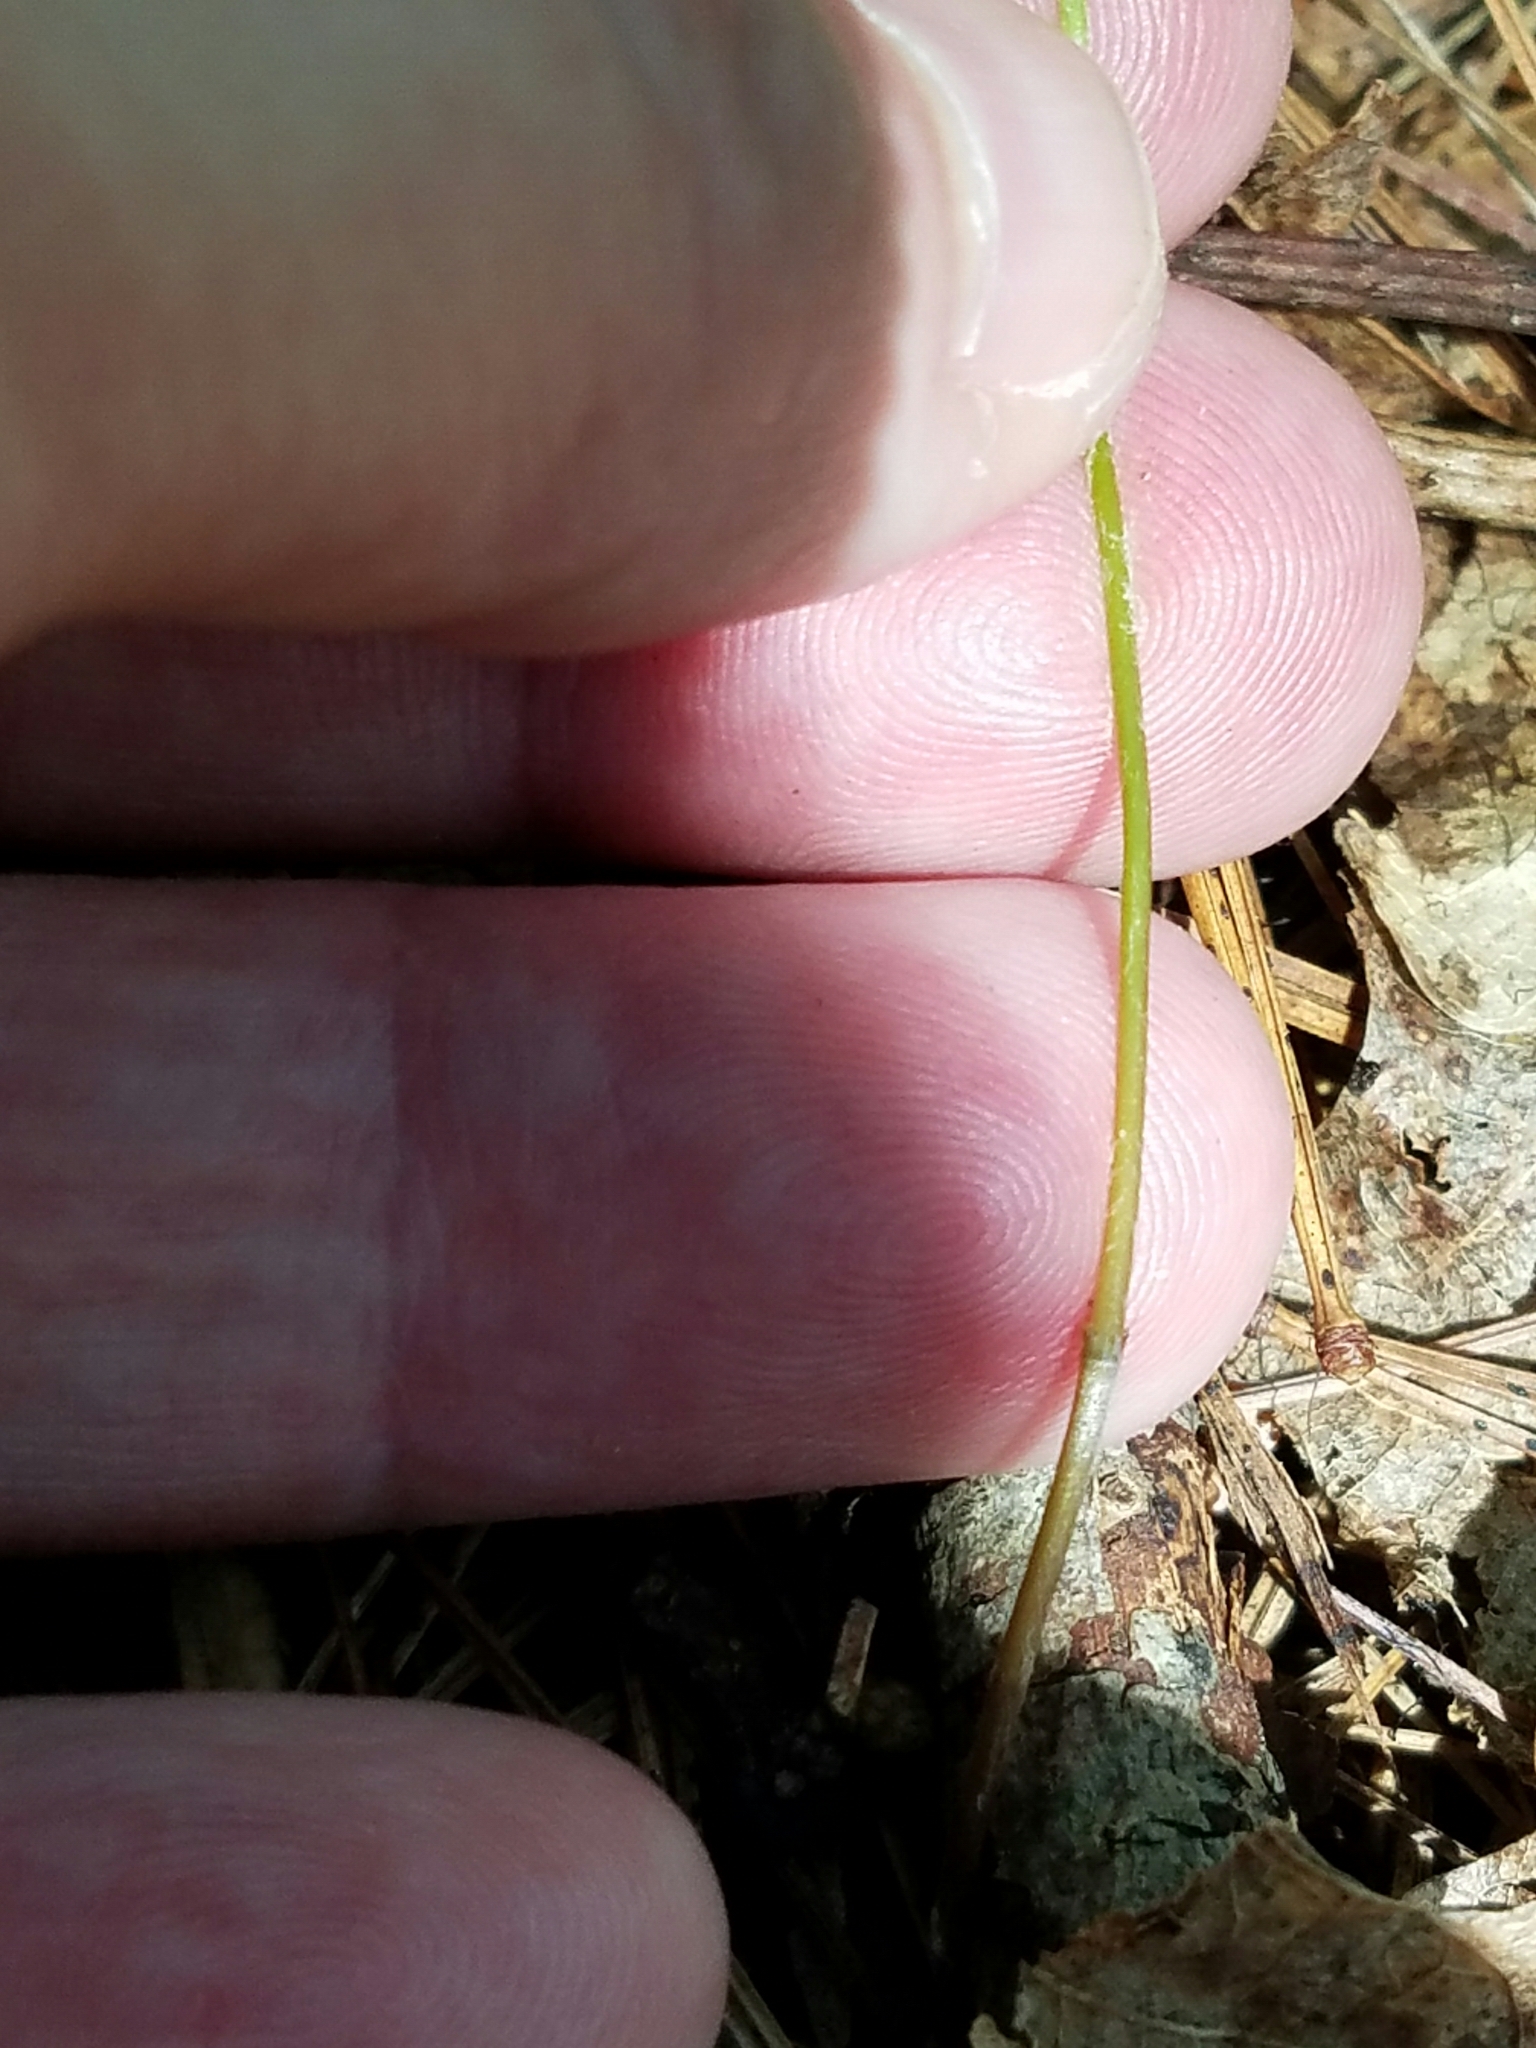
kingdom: Plantae
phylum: Tracheophyta
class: Liliopsida
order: Liliales
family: Liliaceae
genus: Medeola
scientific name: Medeola virginiana
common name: Indian cucumber-root
